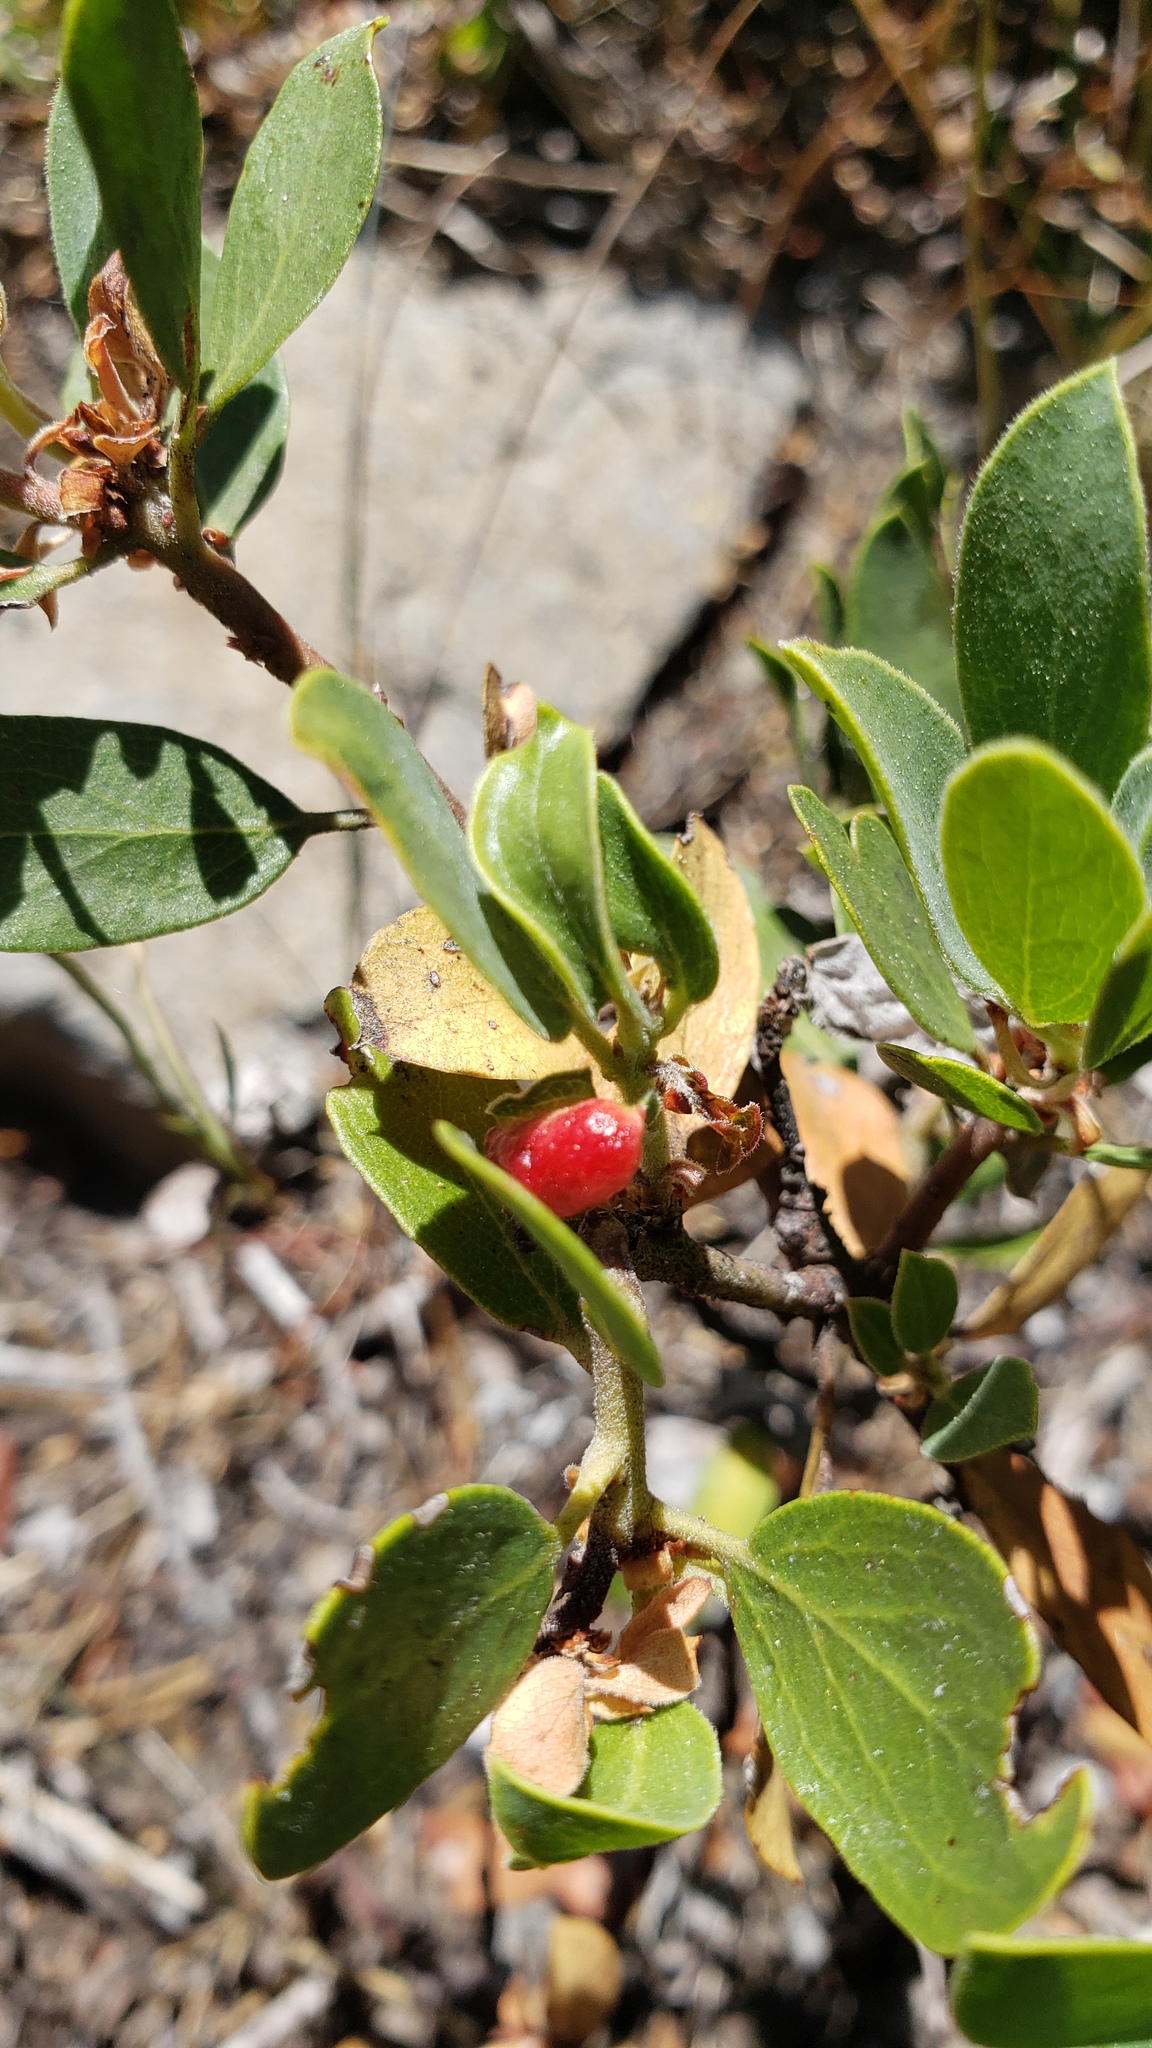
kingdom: Animalia
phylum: Arthropoda
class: Insecta
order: Hemiptera
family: Aphididae
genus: Tamalia
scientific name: Tamalia coweni
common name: Manzanita leafgall aphid
